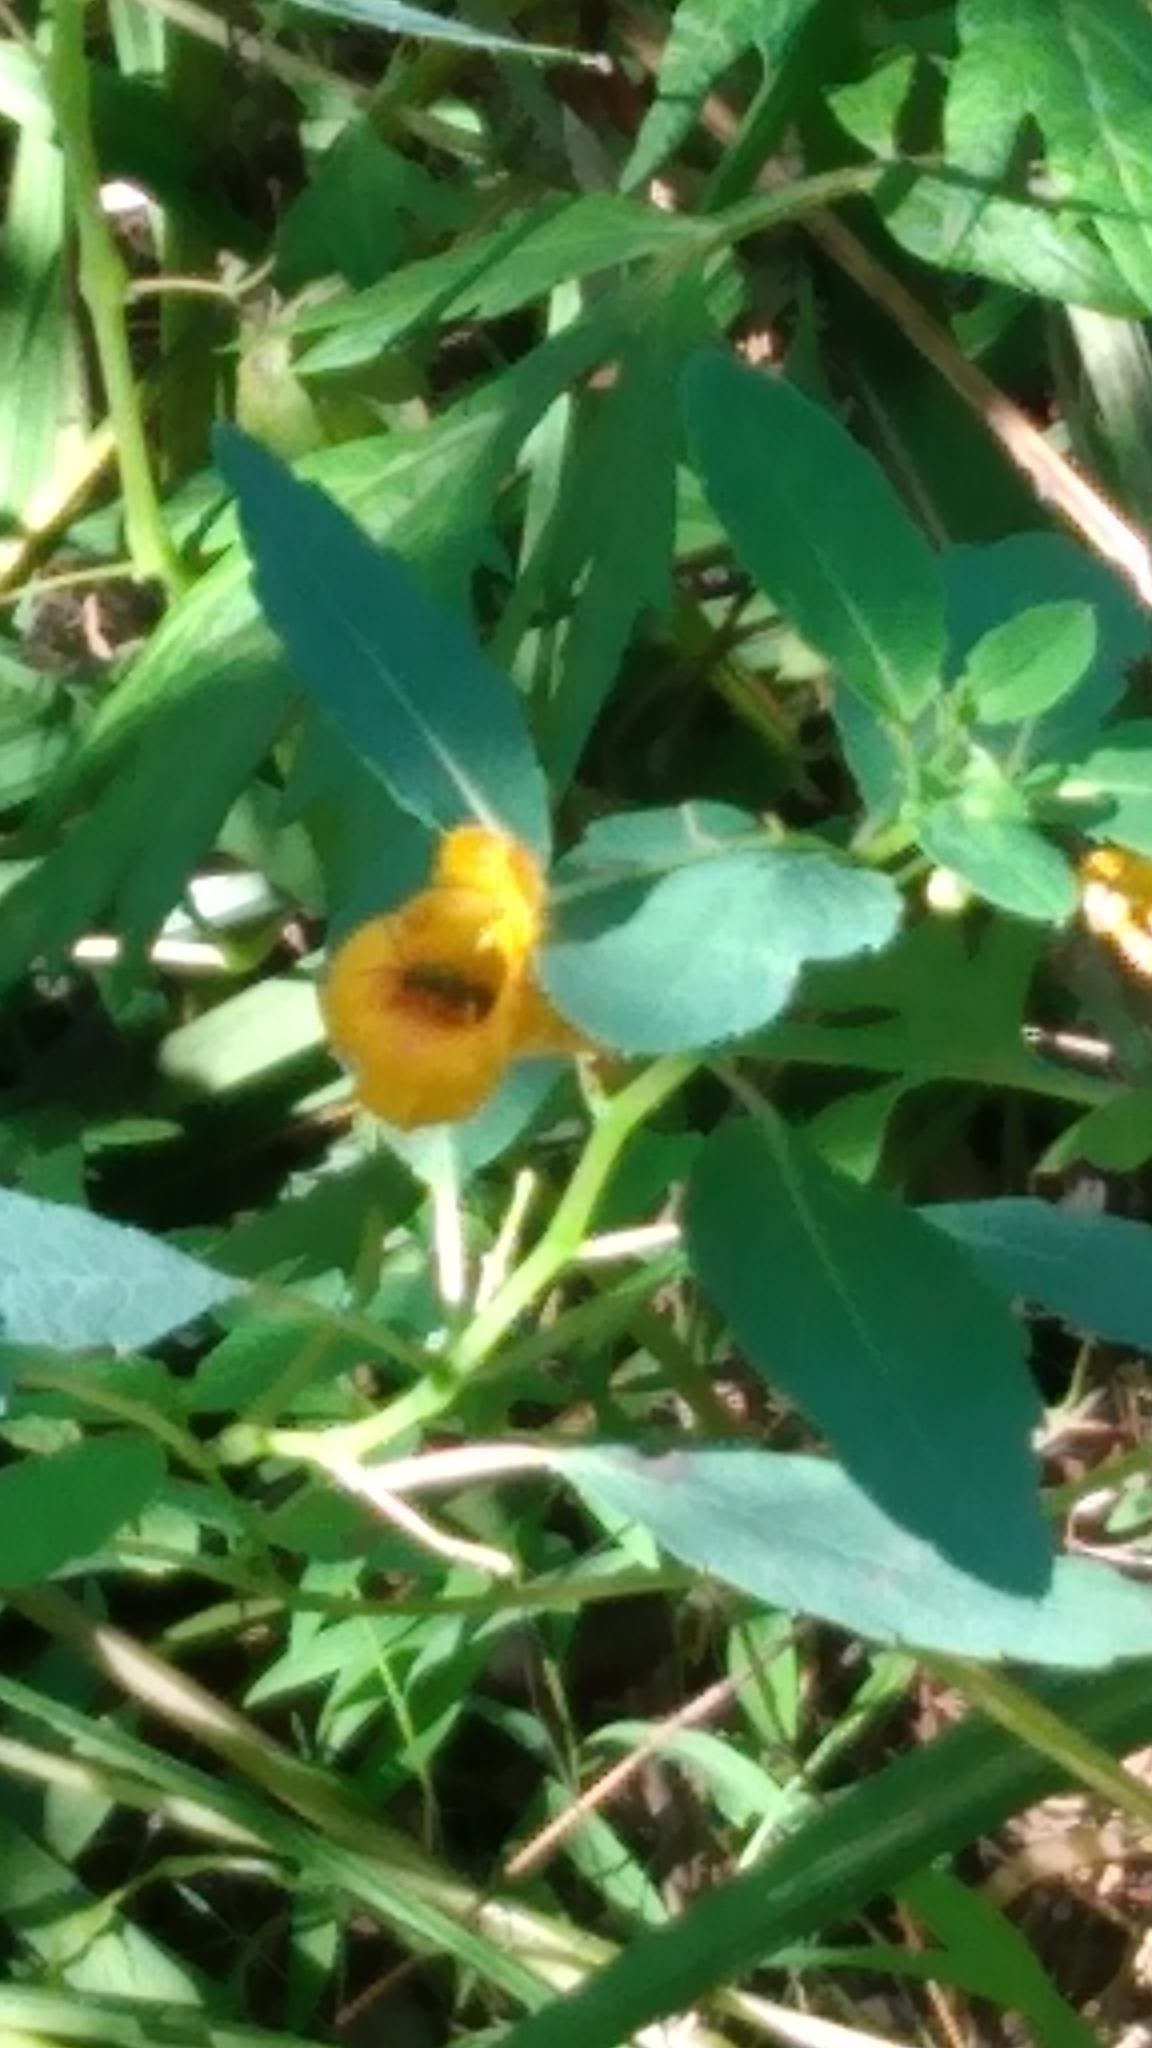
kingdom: Plantae
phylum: Tracheophyta
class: Magnoliopsida
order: Ericales
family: Balsaminaceae
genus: Impatiens
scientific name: Impatiens capensis
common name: Orange balsam
